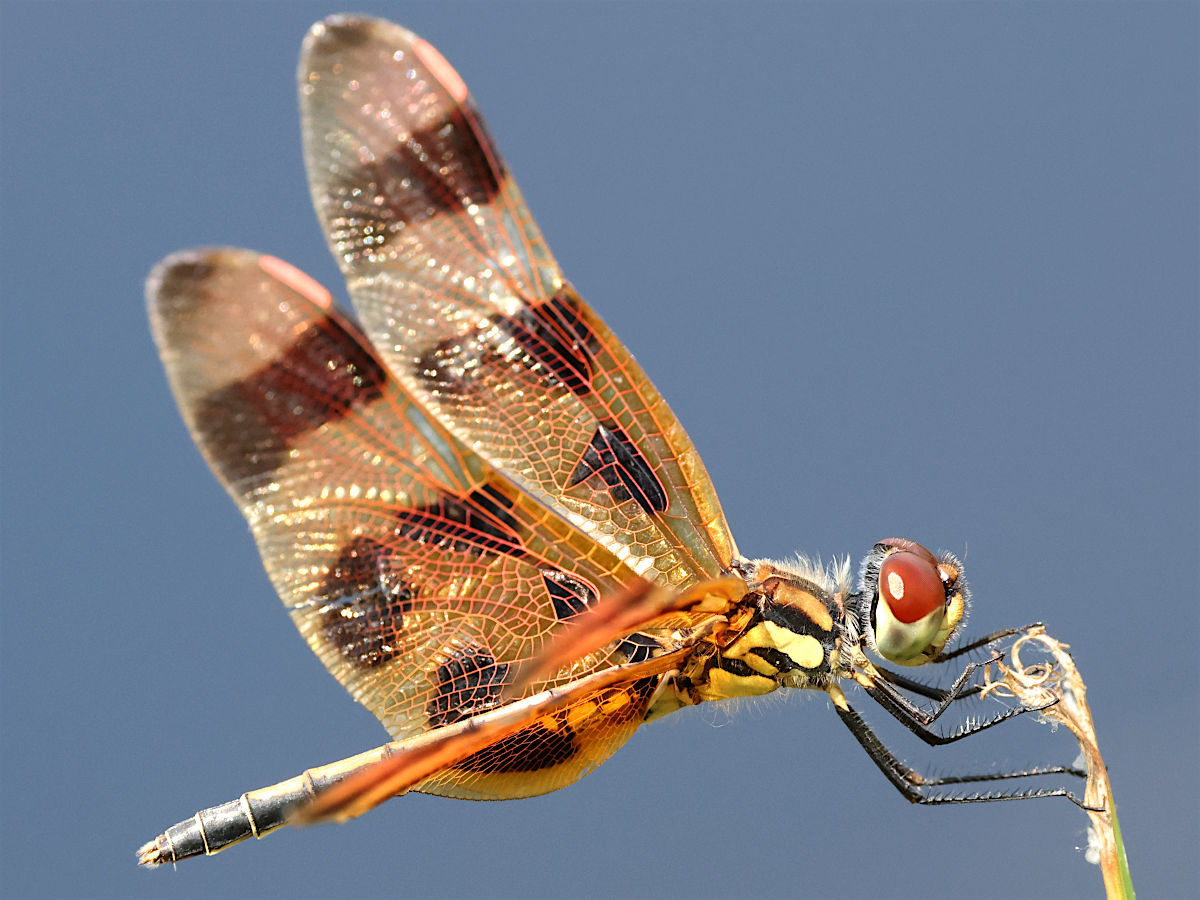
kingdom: Animalia
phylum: Arthropoda
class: Insecta
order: Odonata
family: Libellulidae
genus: Celithemis
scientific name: Celithemis eponina
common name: Halloween pennant
